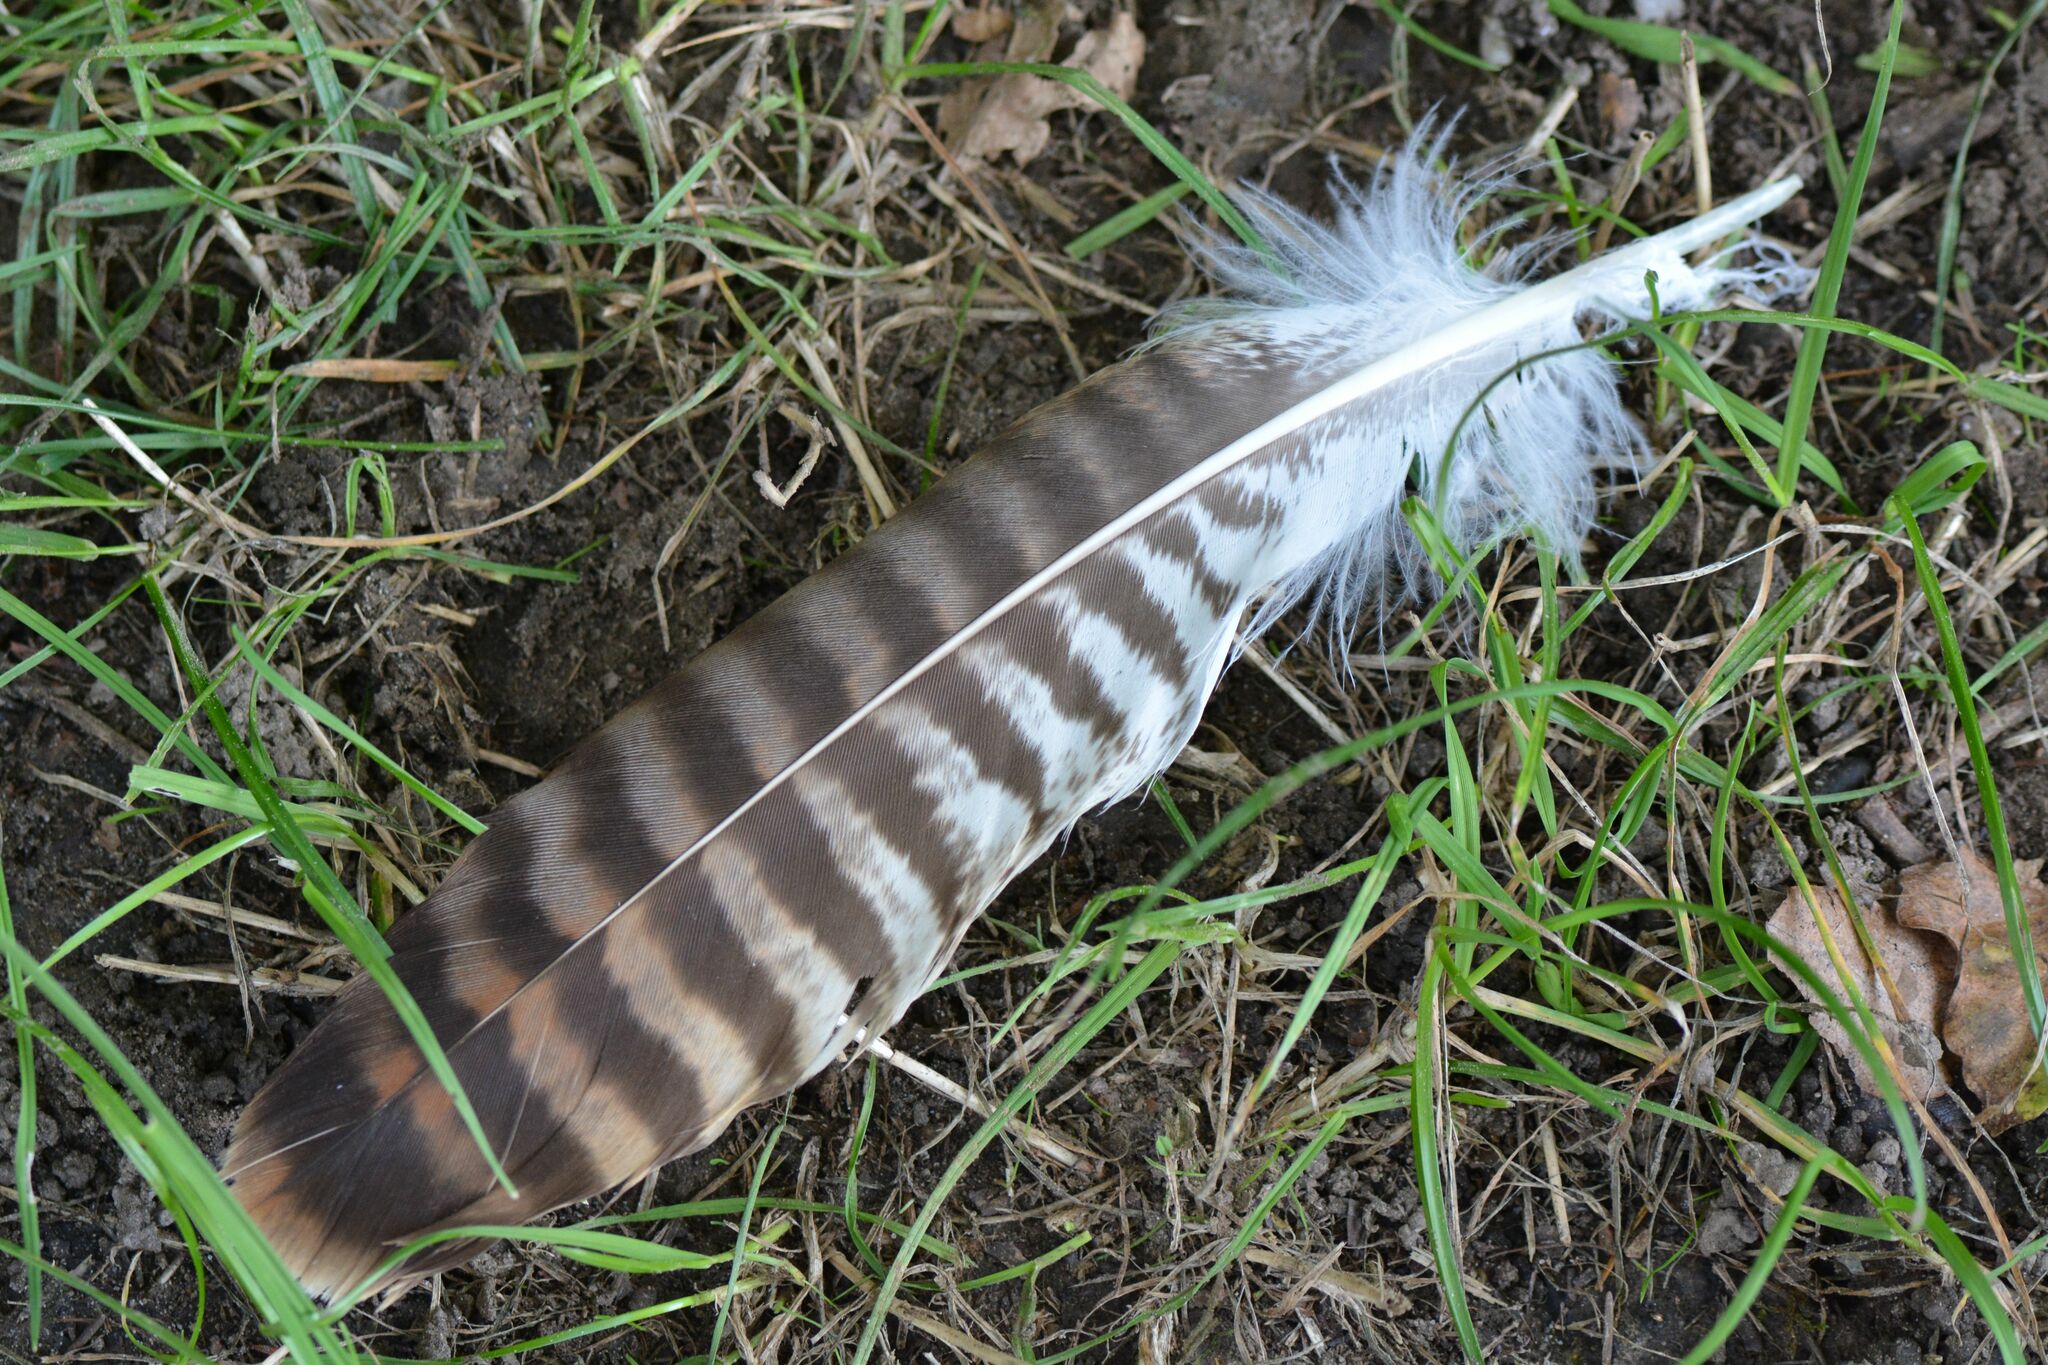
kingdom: Animalia
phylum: Chordata
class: Aves
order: Accipitriformes
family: Accipitridae
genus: Buteo
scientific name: Buteo buteo
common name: Common buzzard
